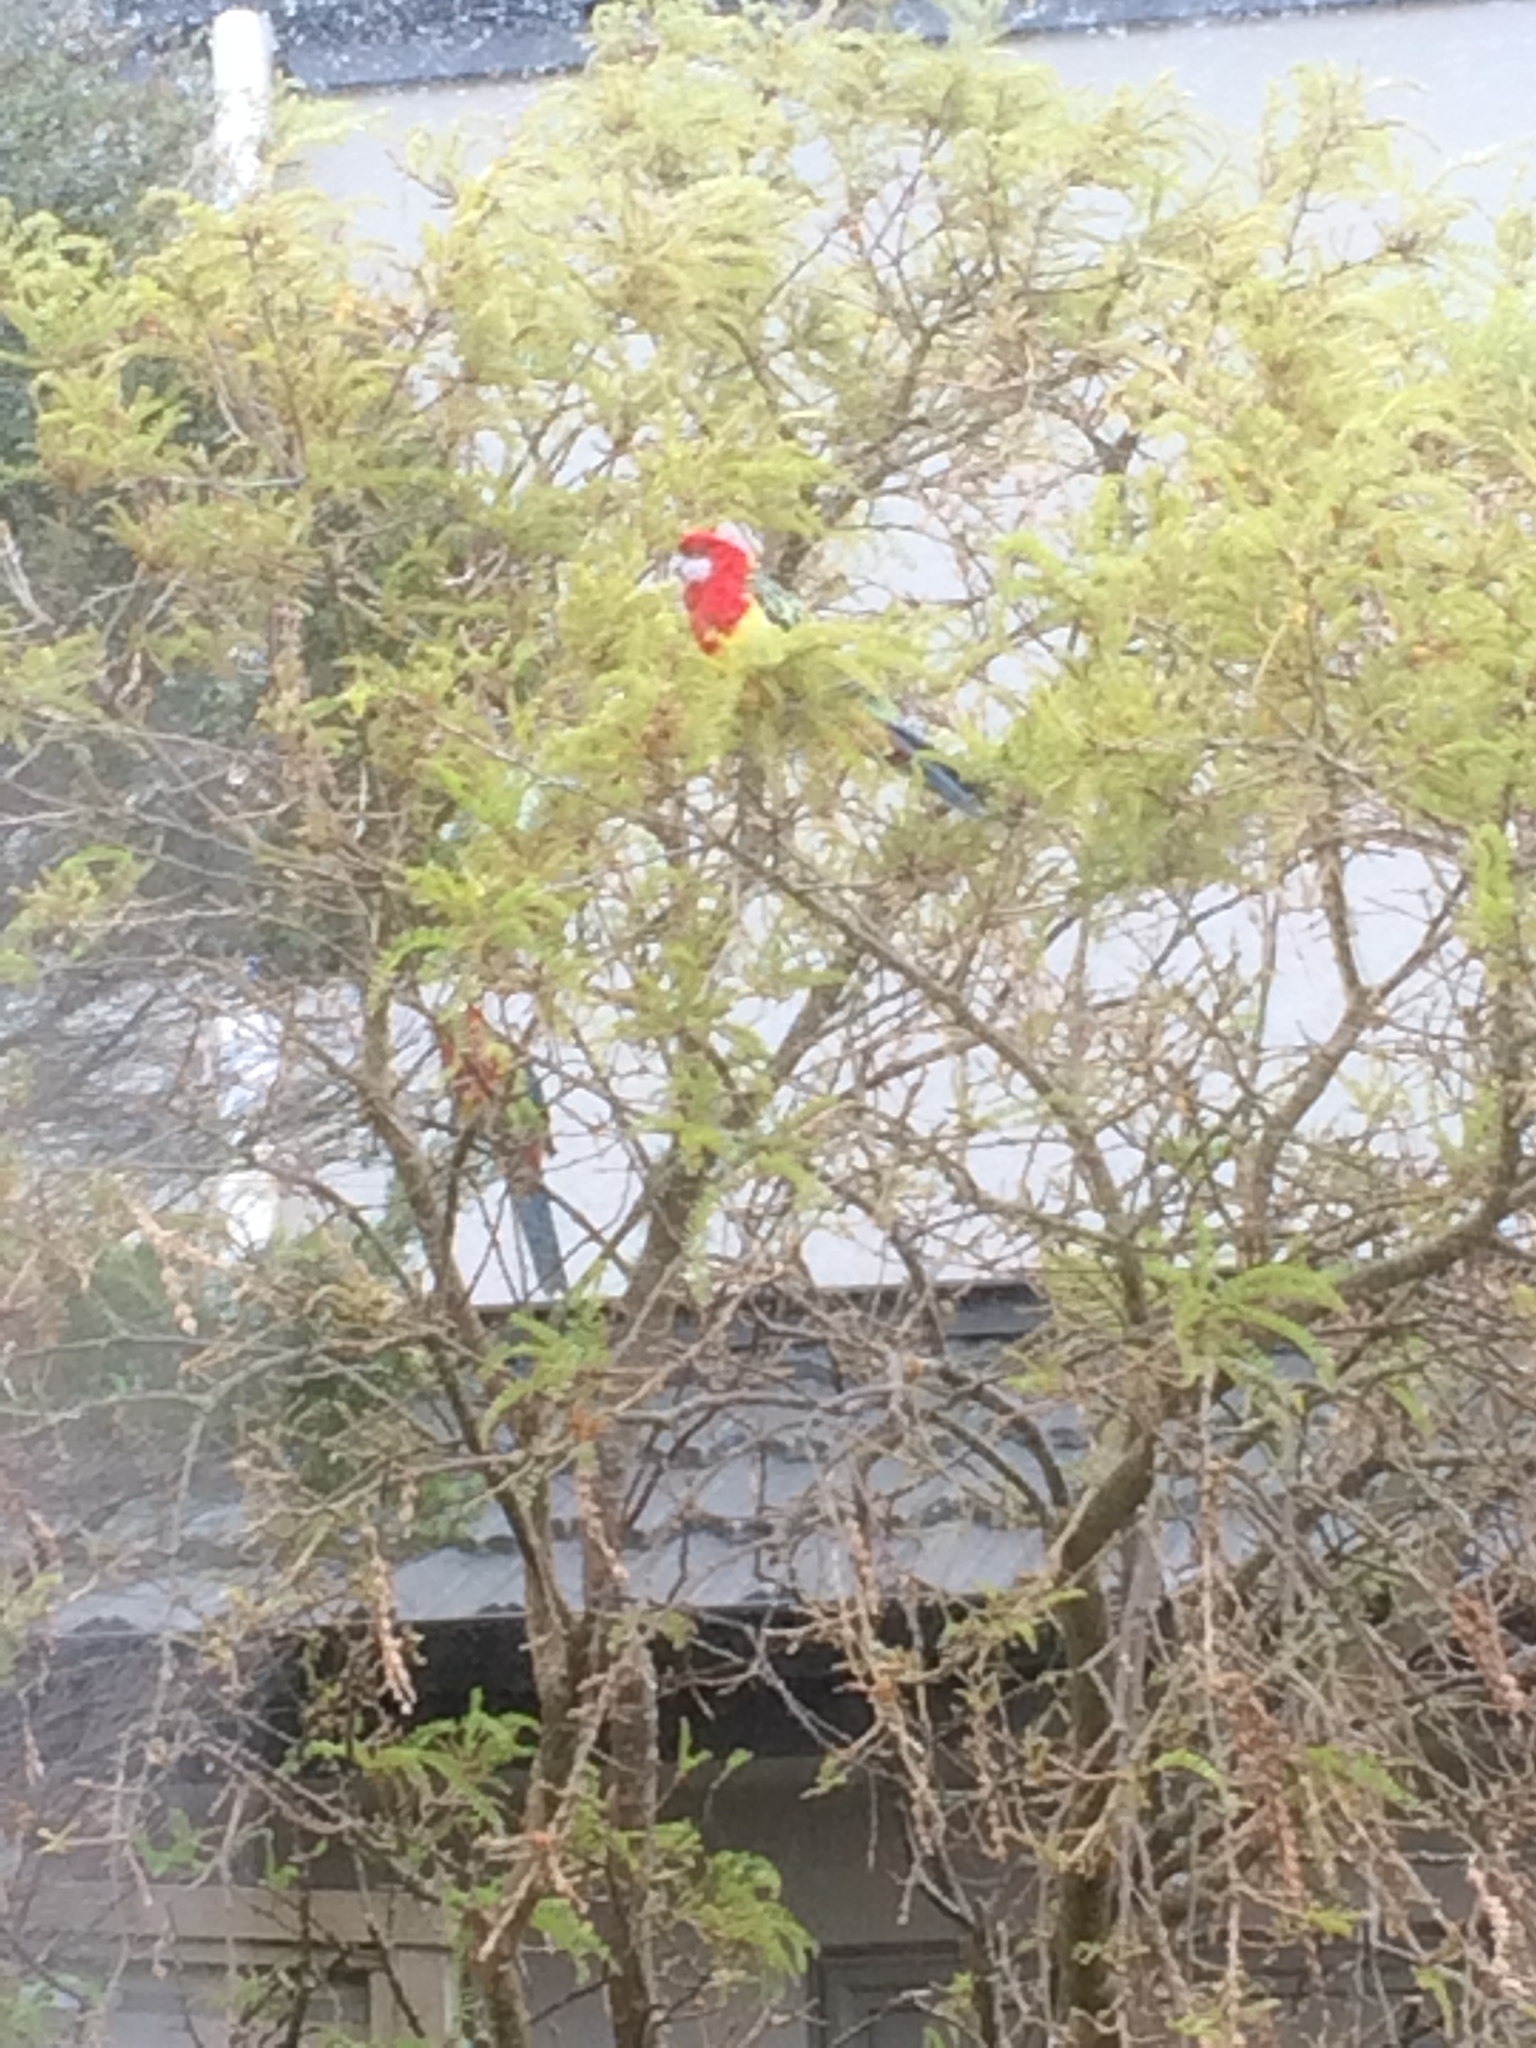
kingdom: Animalia
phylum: Chordata
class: Aves
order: Psittaciformes
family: Psittacidae
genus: Platycercus
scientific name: Platycercus eximius
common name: Eastern rosella
